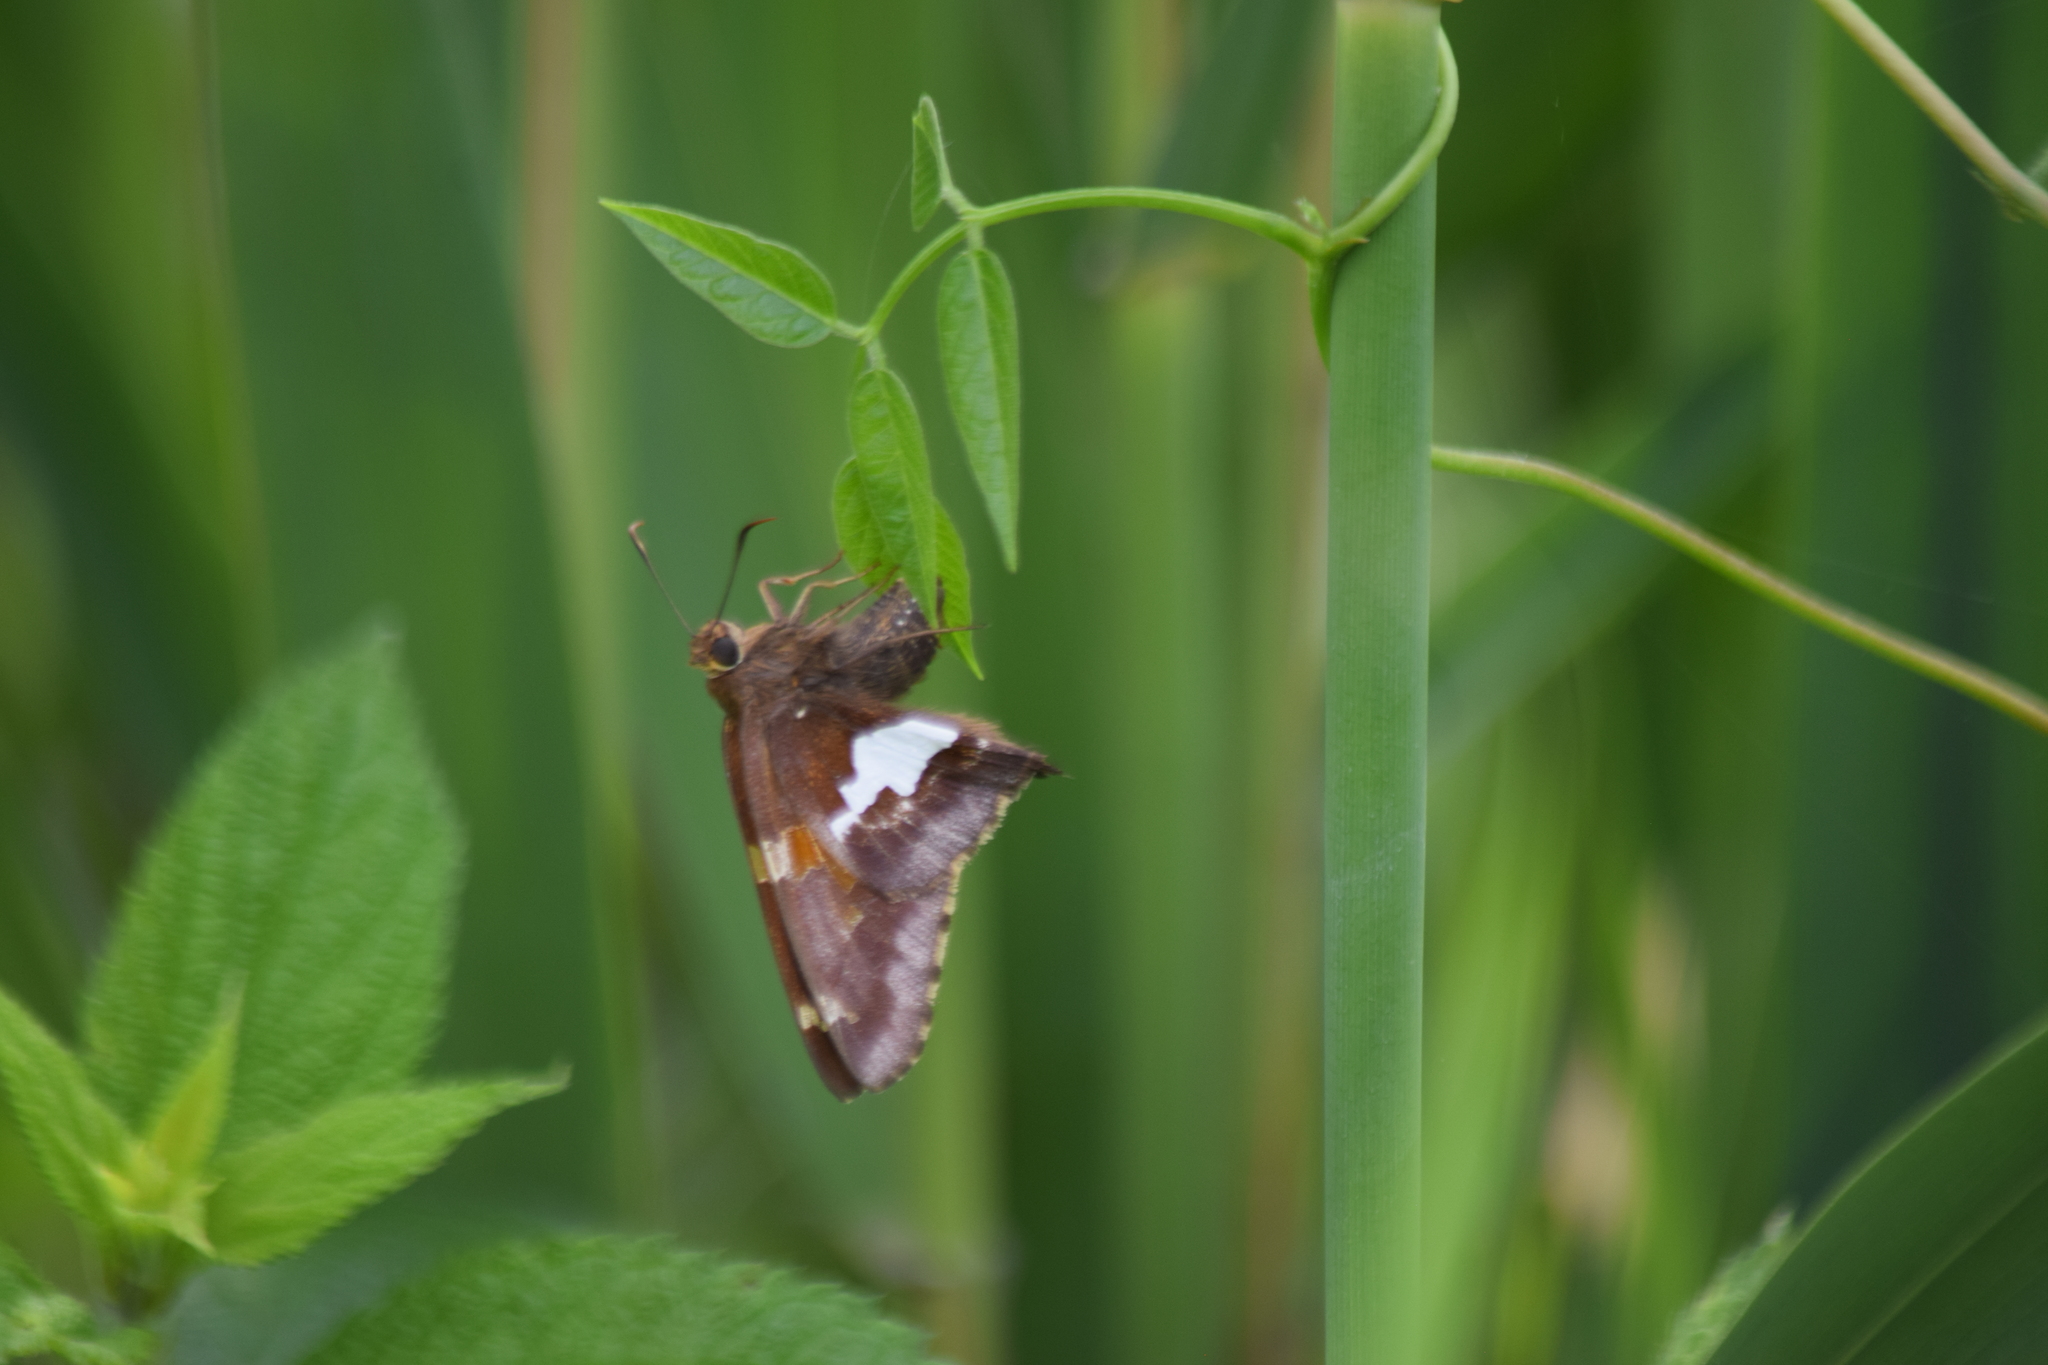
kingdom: Animalia
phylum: Arthropoda
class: Insecta
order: Lepidoptera
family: Hesperiidae
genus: Epargyreus
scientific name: Epargyreus clarus
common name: Silver-spotted skipper
